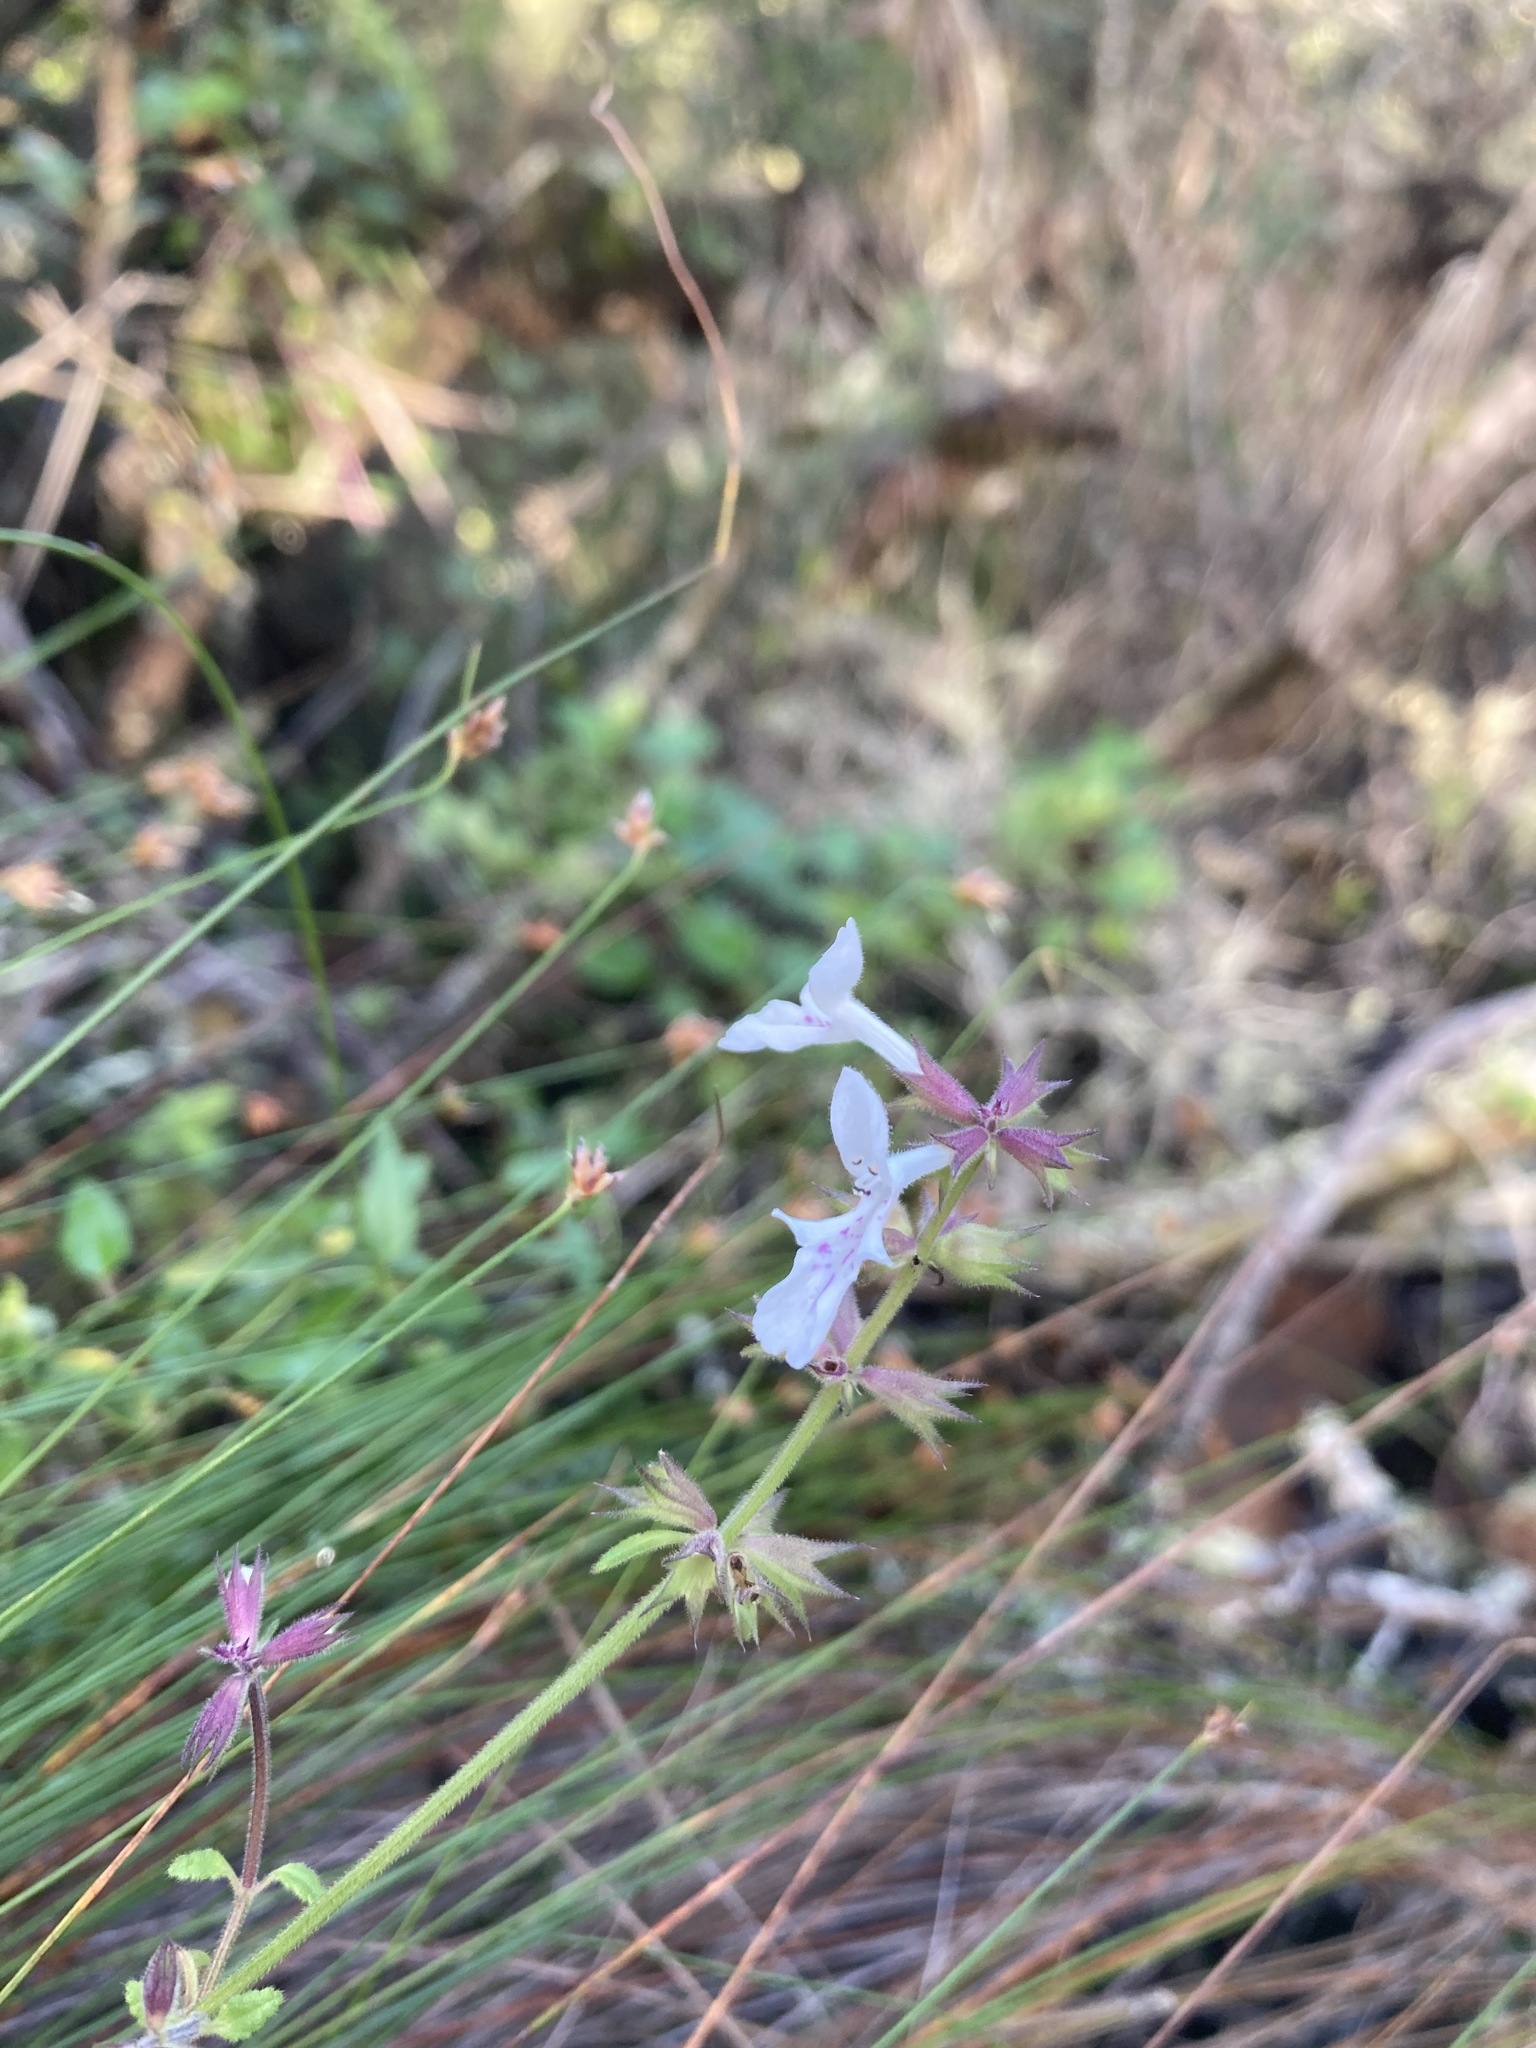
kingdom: Plantae
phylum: Tracheophyta
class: Magnoliopsida
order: Lamiales
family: Lamiaceae
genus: Stachys
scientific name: Stachys aethiopica
